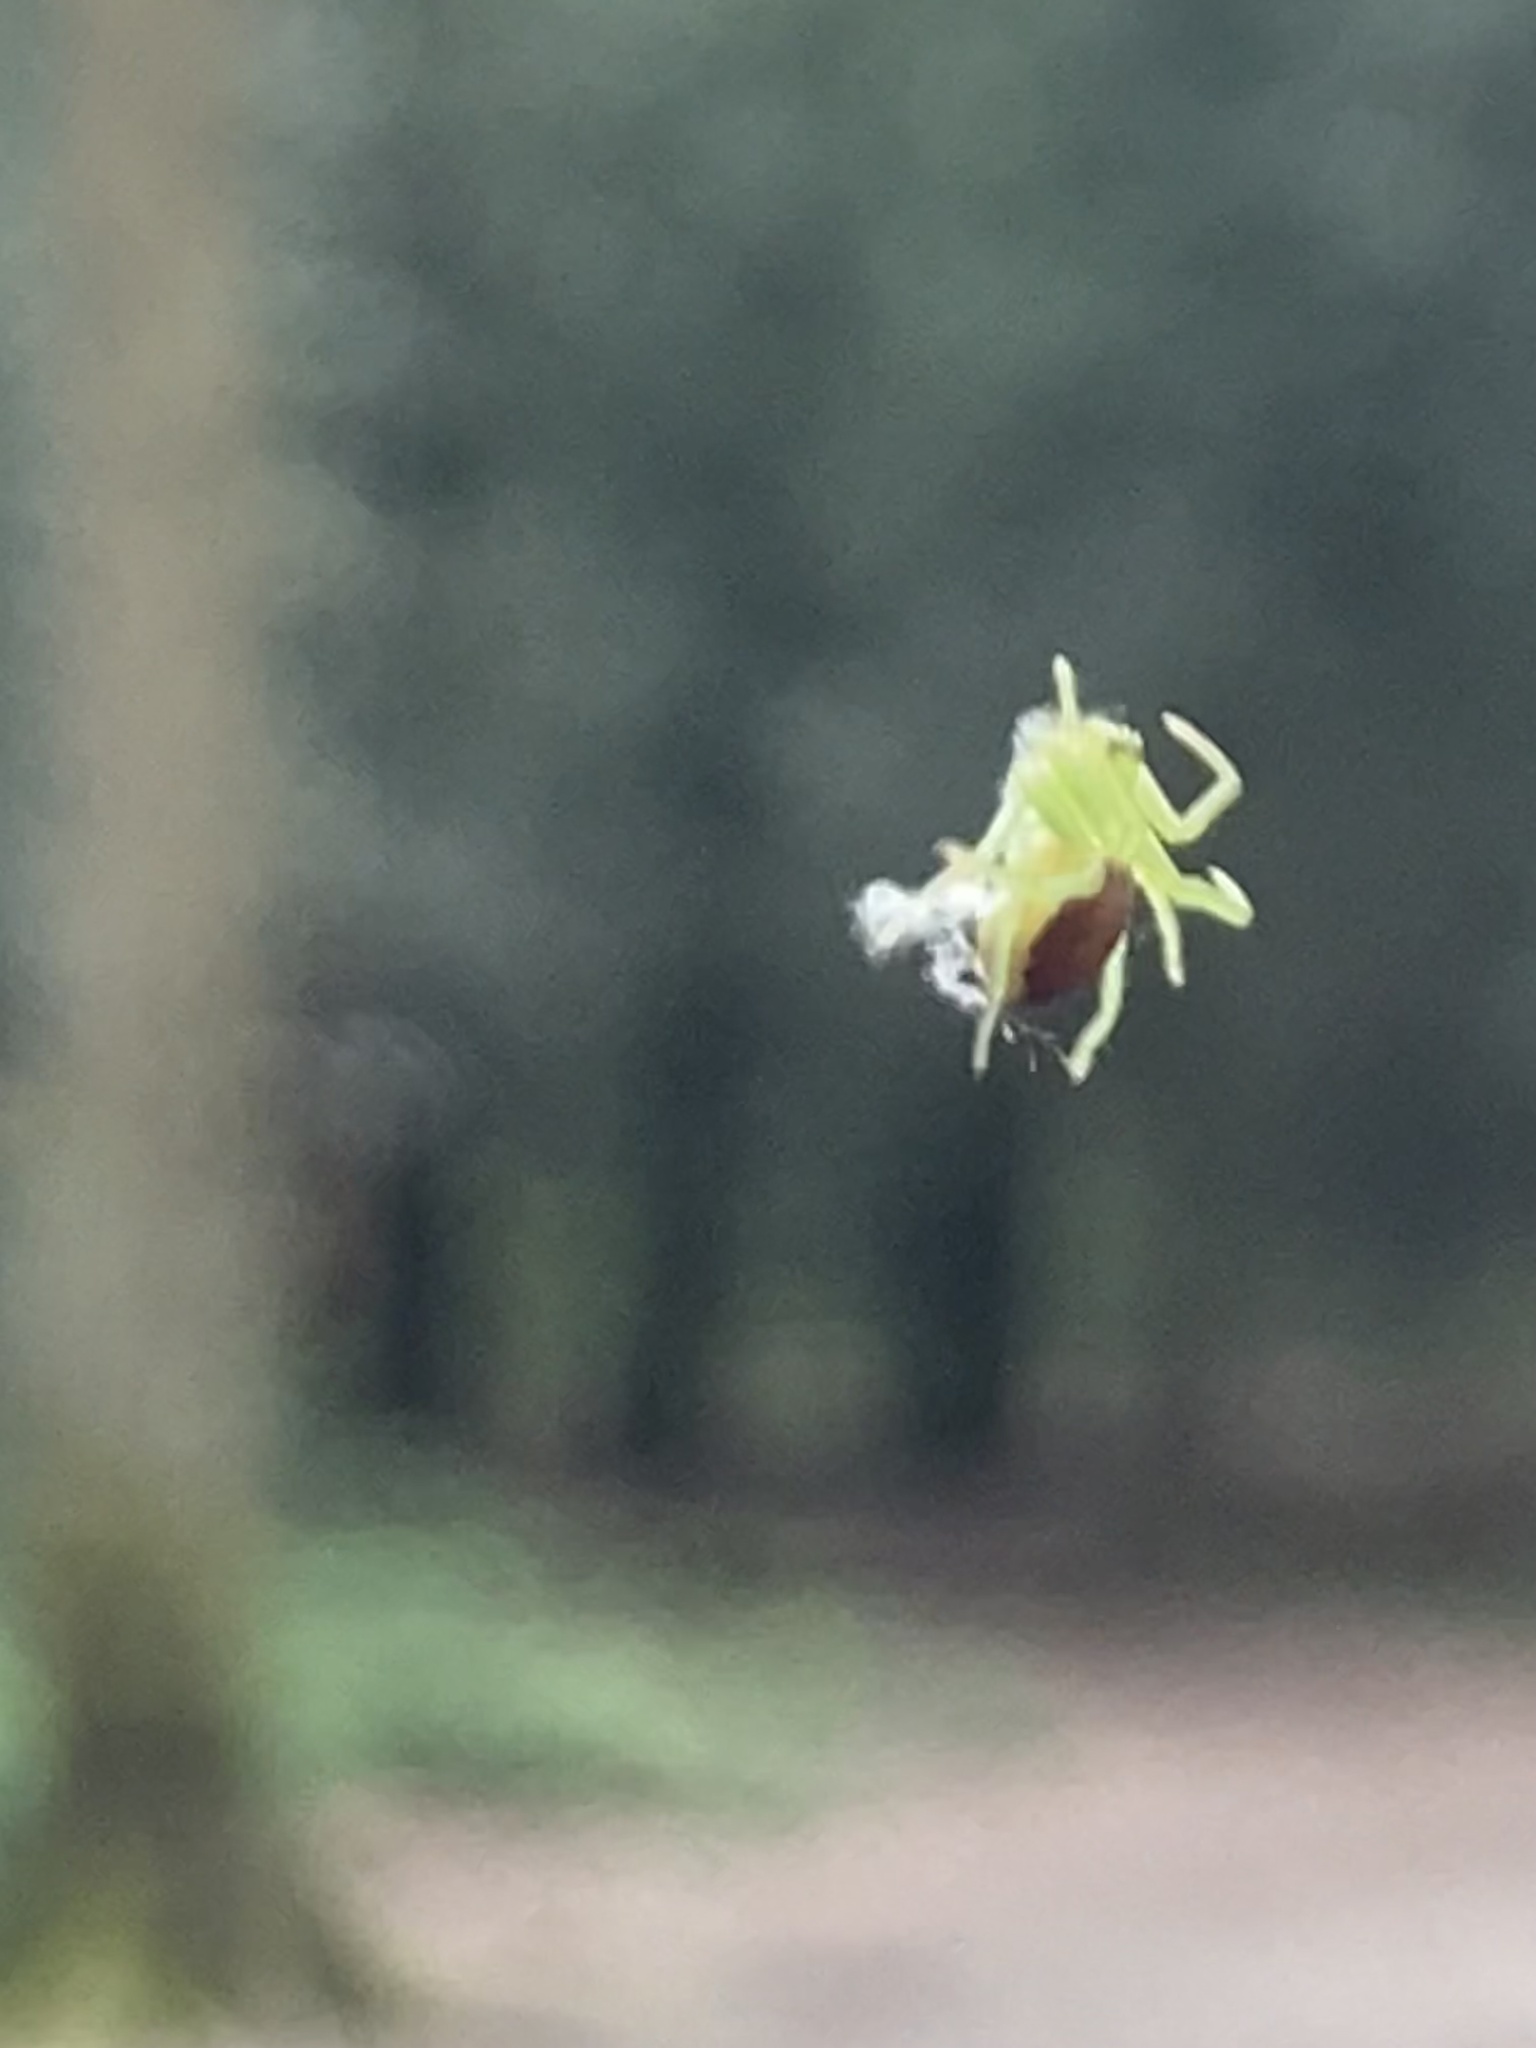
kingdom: Animalia
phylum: Arthropoda
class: Arachnida
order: Araneae
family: Thomisidae
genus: Diaea
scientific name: Diaea dorsata
